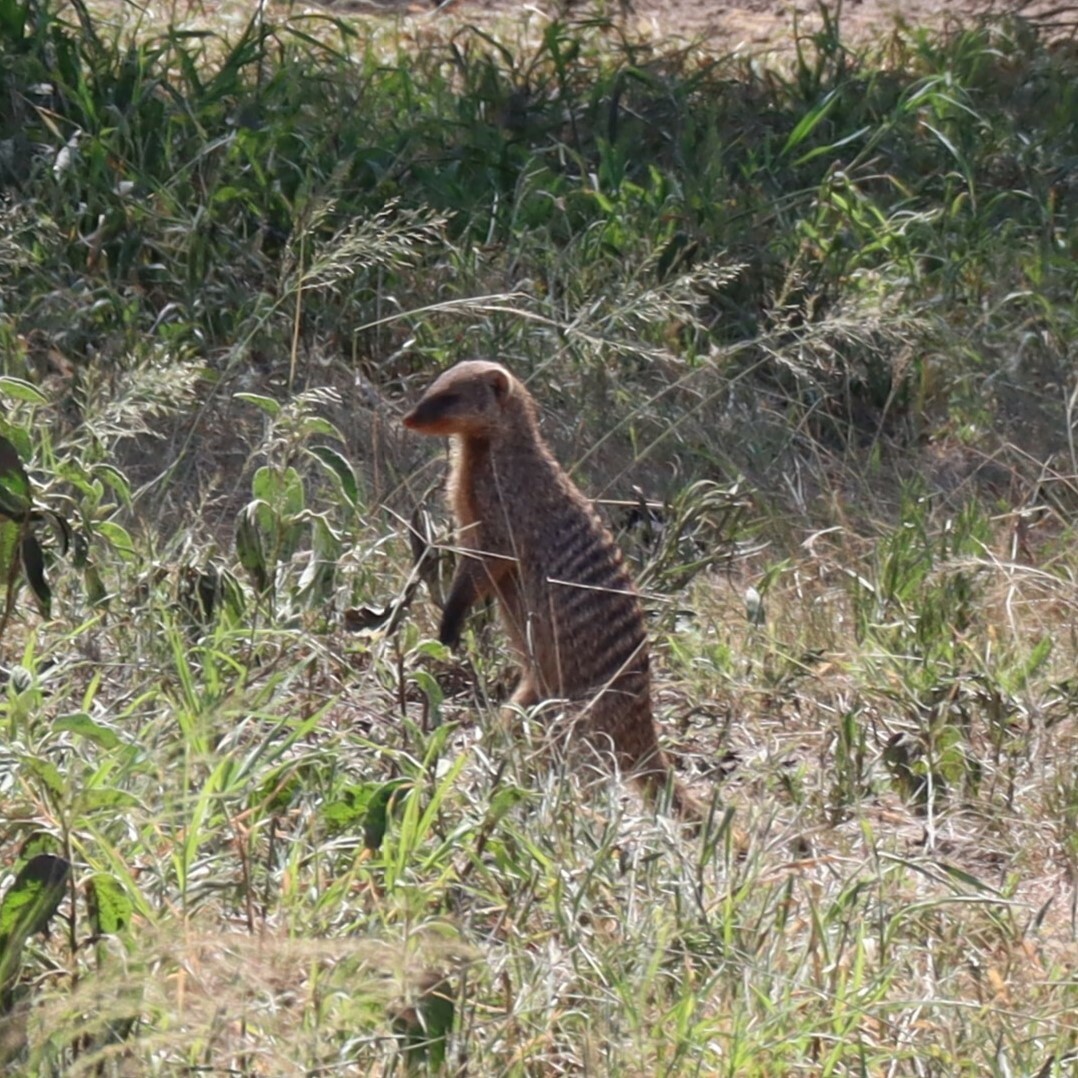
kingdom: Animalia
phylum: Chordata
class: Mammalia
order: Carnivora
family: Herpestidae
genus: Mungos
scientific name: Mungos mungo
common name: Banded mongoose
